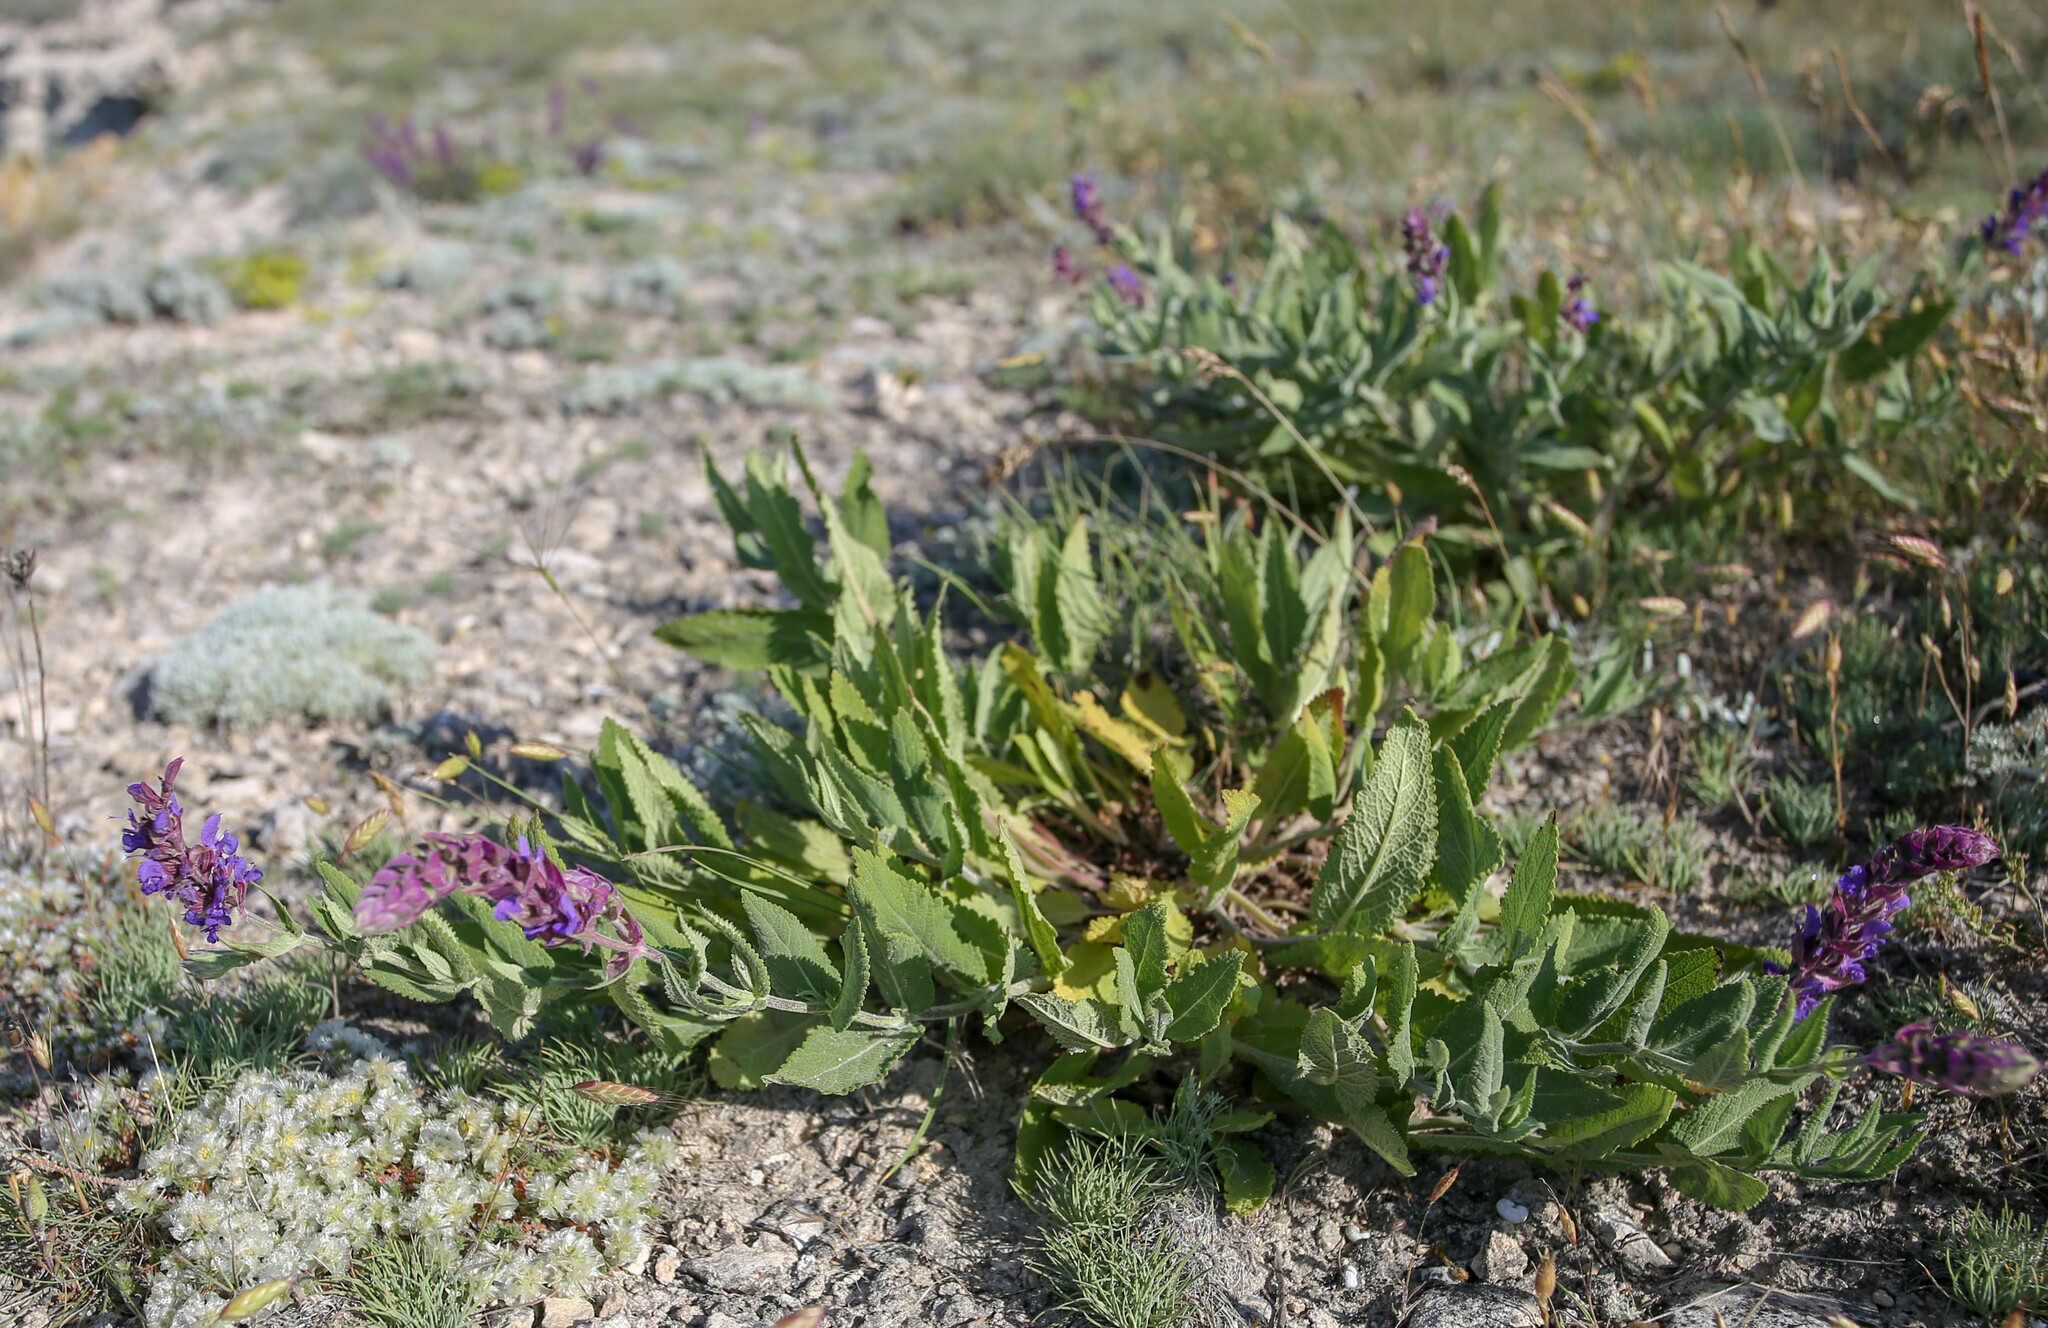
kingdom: Plantae
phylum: Tracheophyta
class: Magnoliopsida
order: Lamiales
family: Lamiaceae
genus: Salvia
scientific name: Salvia nemorosa
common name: Balkan clary
